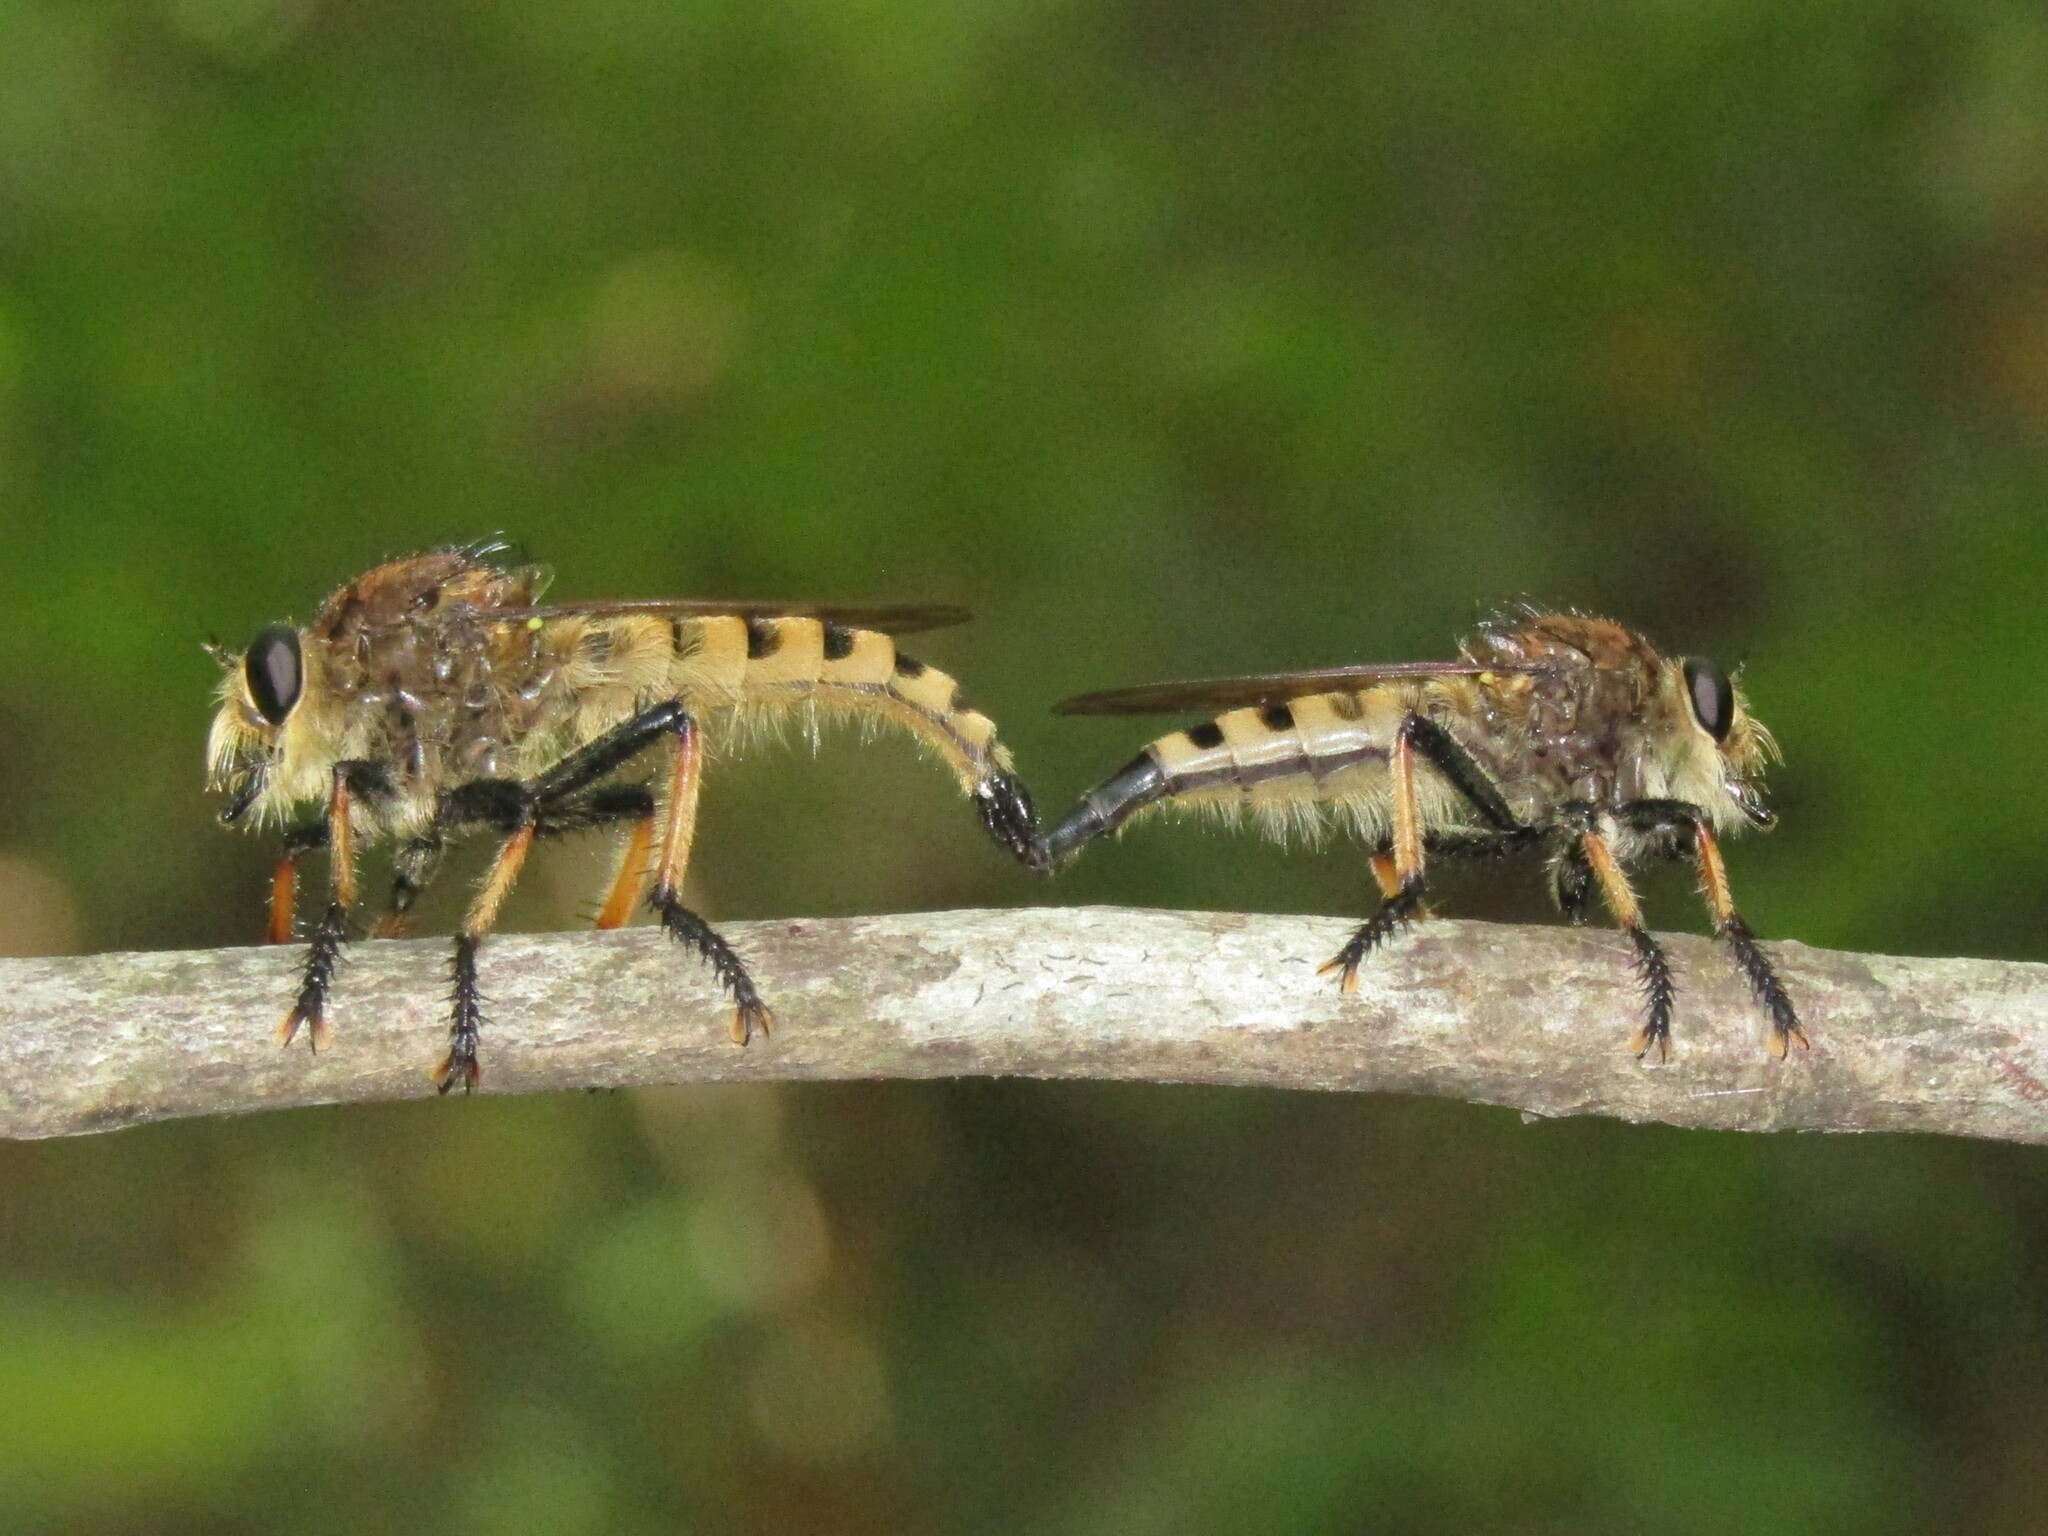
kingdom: Animalia
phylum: Arthropoda
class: Insecta
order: Diptera
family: Asilidae
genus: Promachus
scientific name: Promachus rufipes
